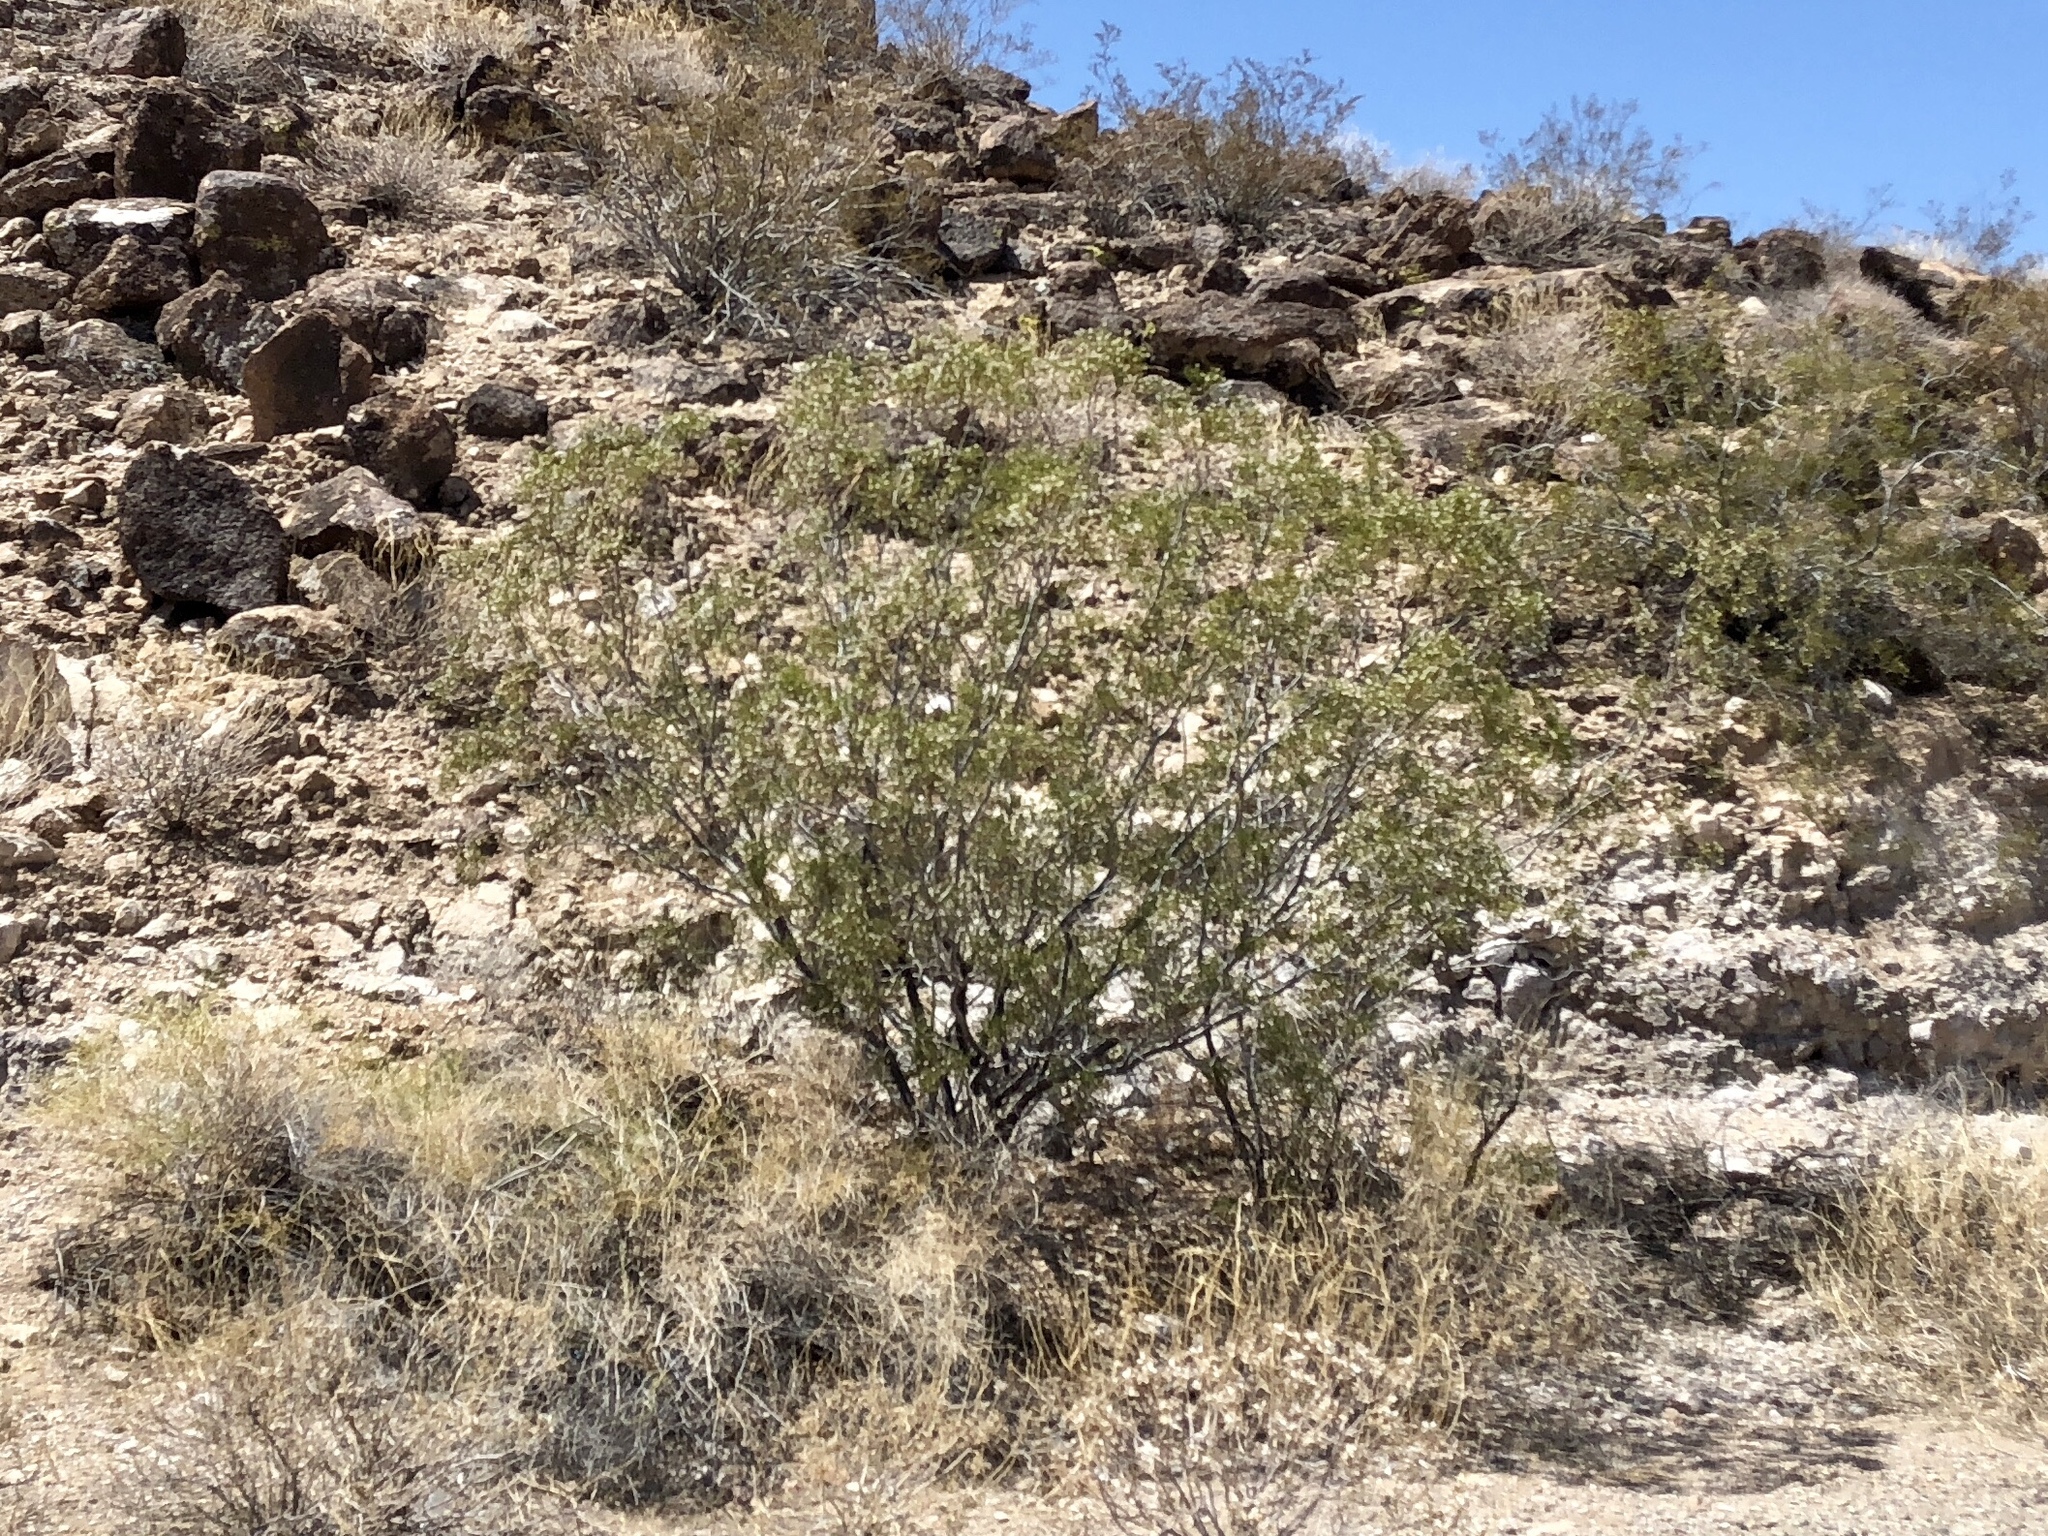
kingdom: Plantae
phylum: Tracheophyta
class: Magnoliopsida
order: Zygophyllales
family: Zygophyllaceae
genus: Larrea
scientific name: Larrea tridentata
